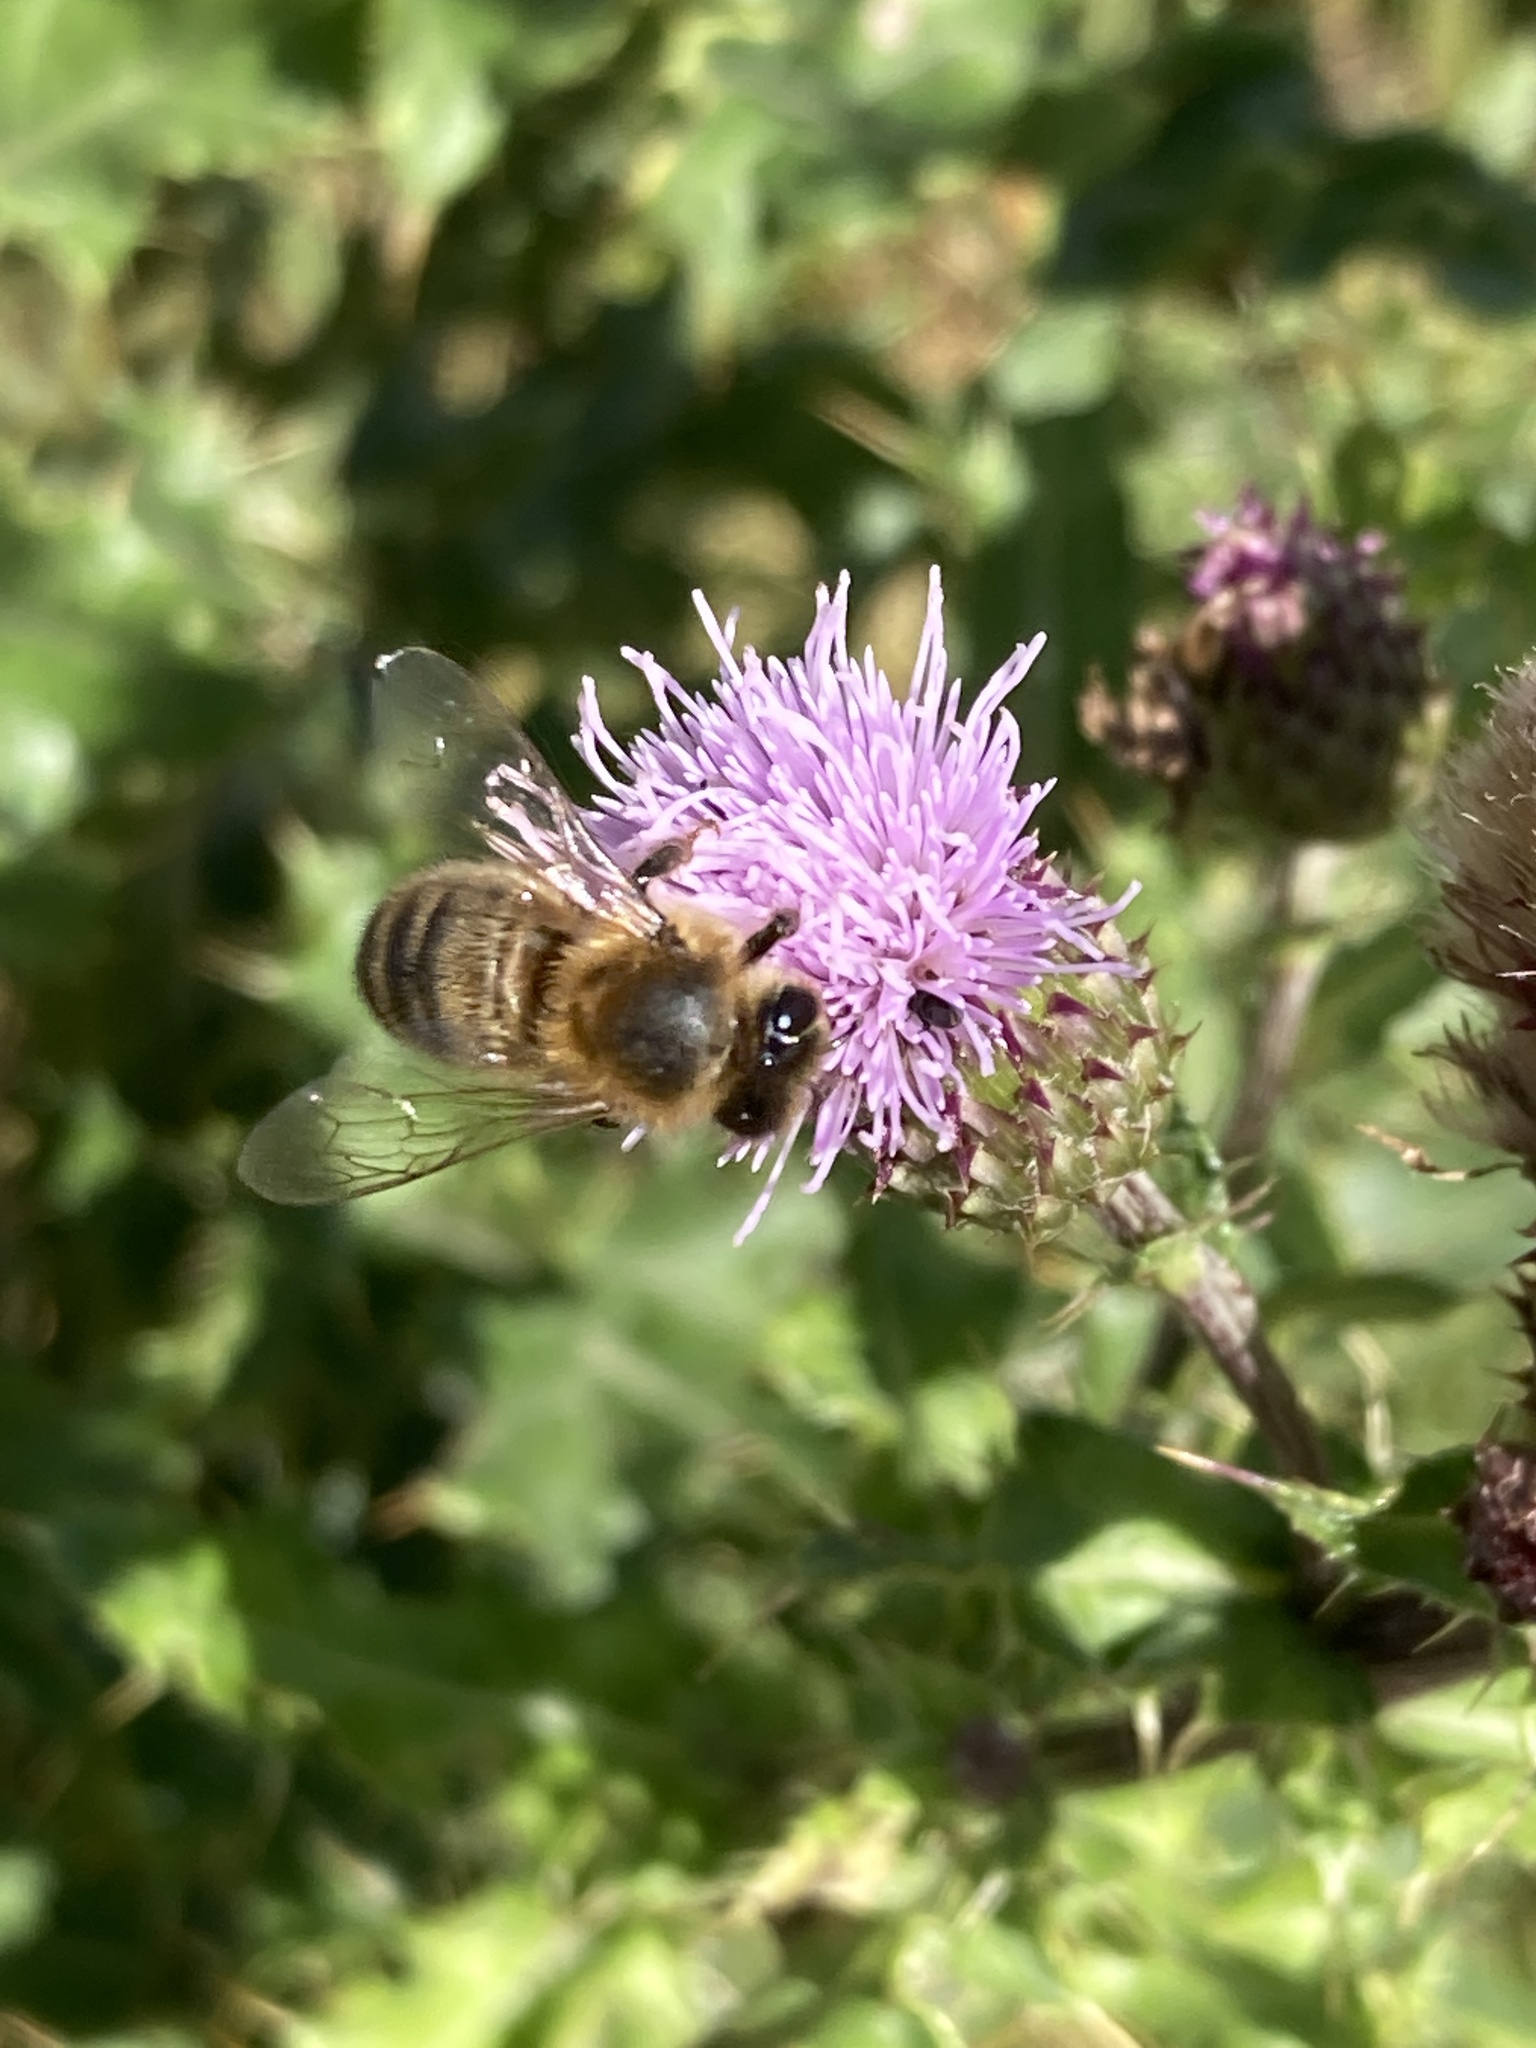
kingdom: Animalia
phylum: Arthropoda
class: Insecta
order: Hymenoptera
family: Apidae
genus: Apis
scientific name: Apis mellifera
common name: Honey bee
